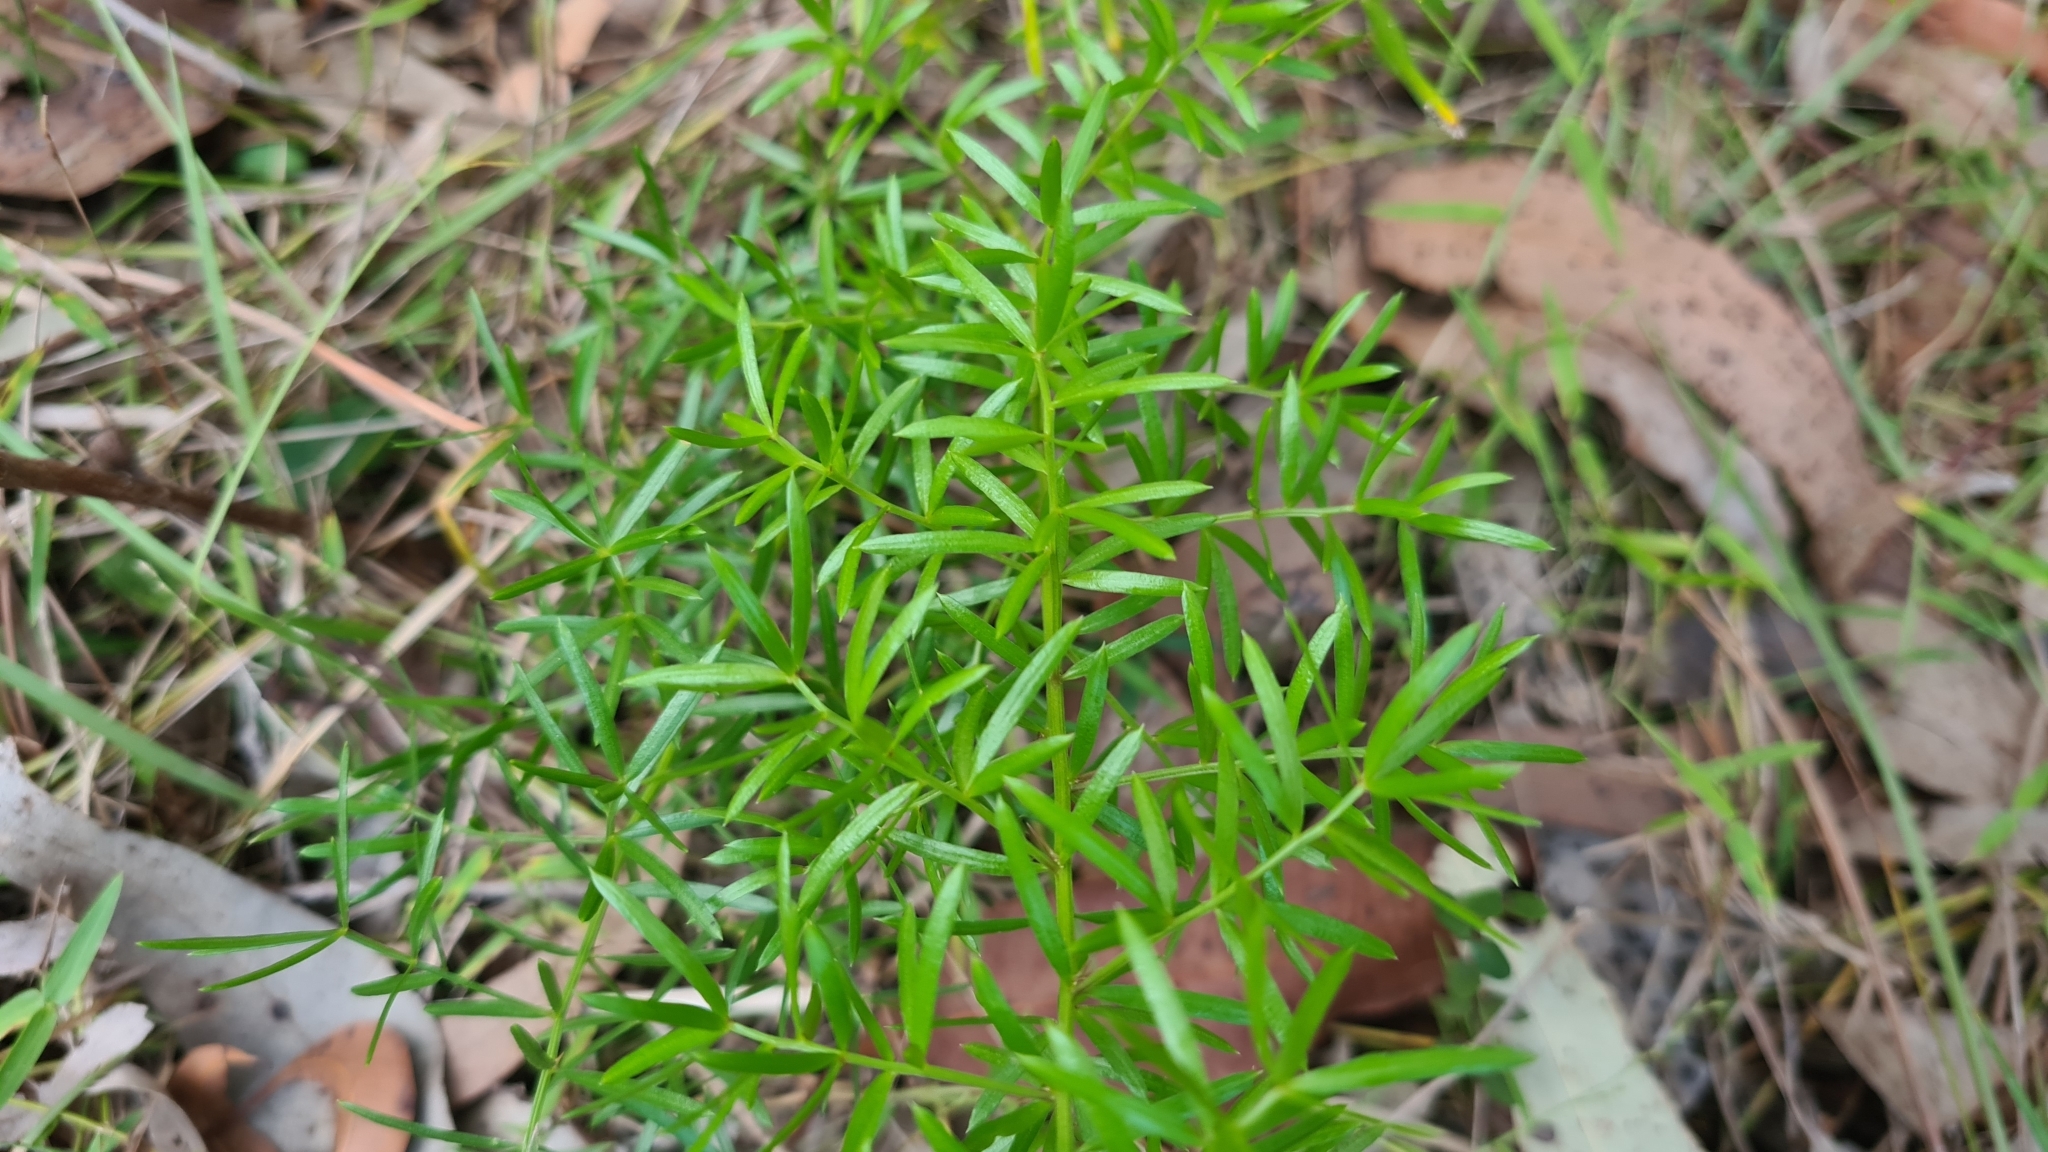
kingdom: Plantae
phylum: Tracheophyta
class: Liliopsida
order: Asparagales
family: Asparagaceae
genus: Asparagus
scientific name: Asparagus aethiopicus
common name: Sprenger's asparagus fern
